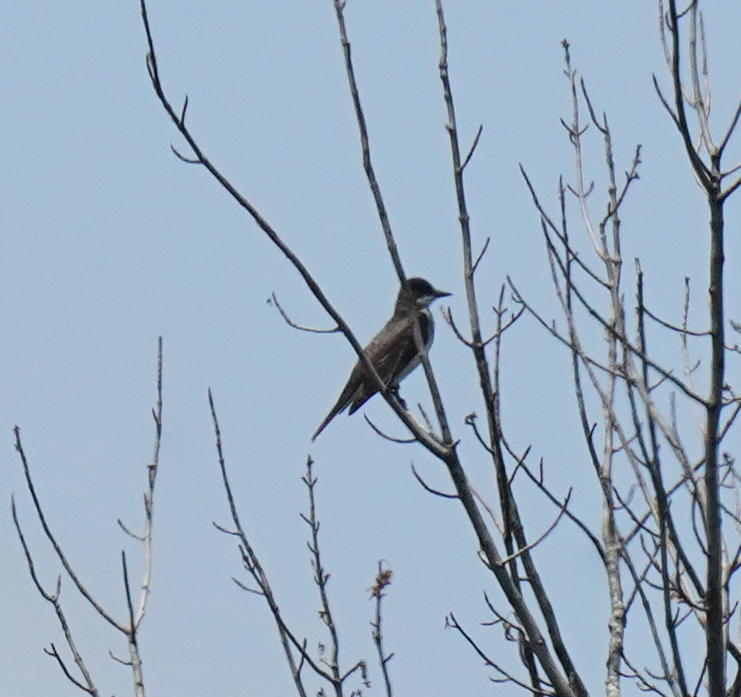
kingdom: Animalia
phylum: Chordata
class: Aves
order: Passeriformes
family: Tyrannidae
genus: Tyrannus
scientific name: Tyrannus tyrannus
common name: Eastern kingbird
